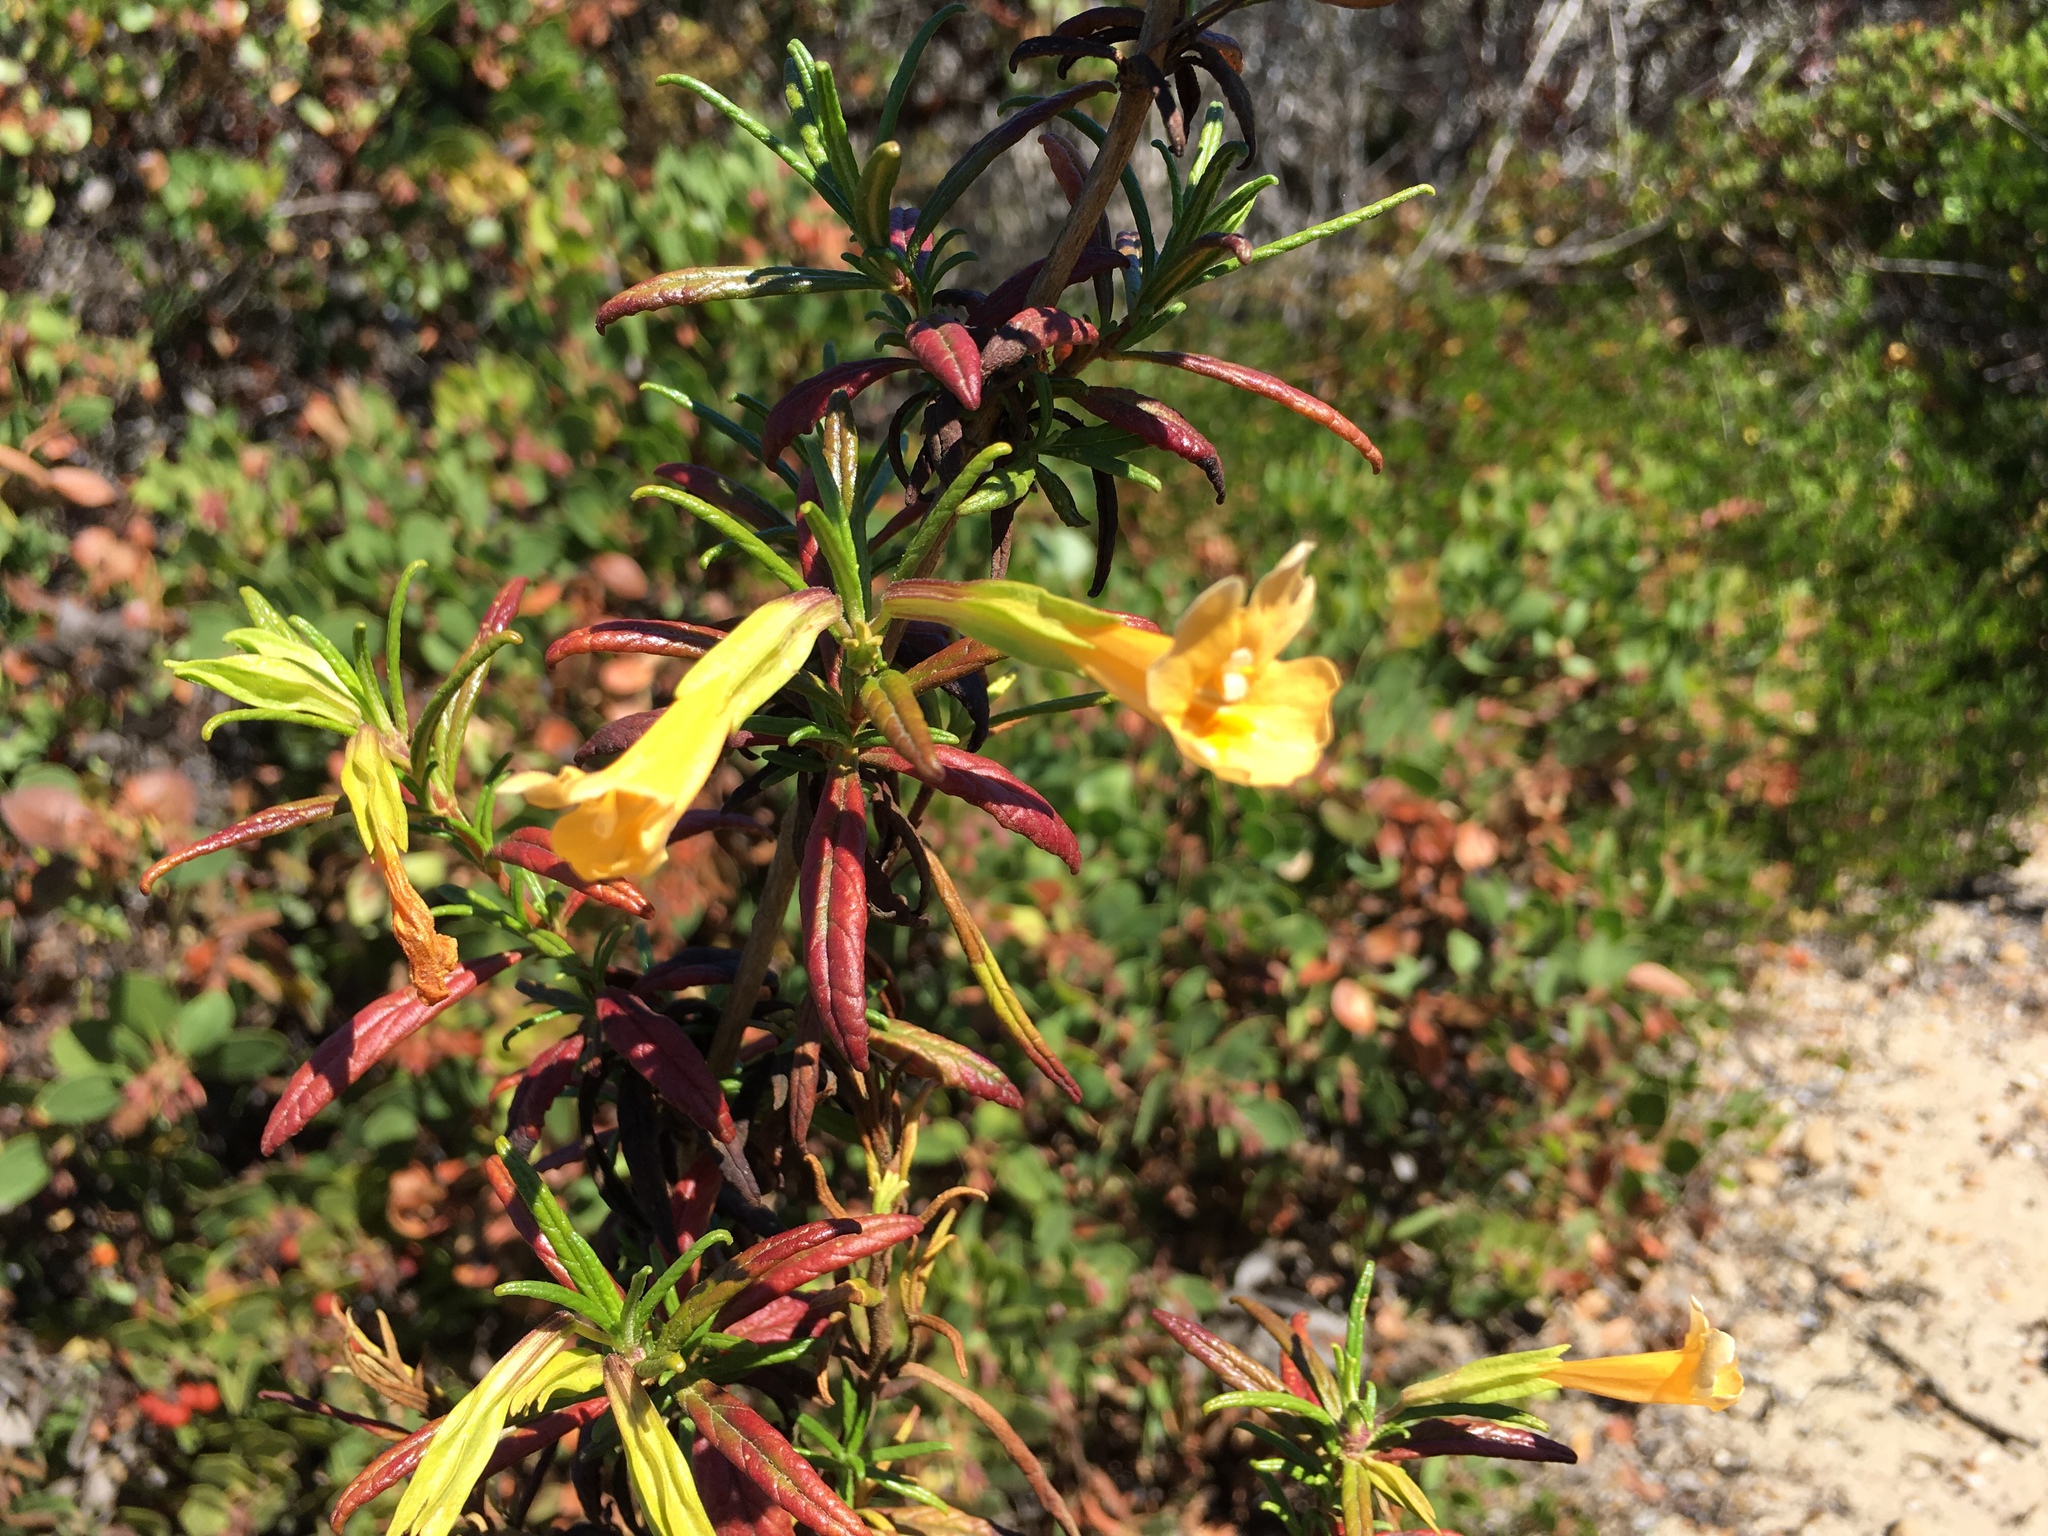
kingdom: Plantae
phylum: Tracheophyta
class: Magnoliopsida
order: Lamiales
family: Phrymaceae
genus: Diplacus
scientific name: Diplacus aurantiacus
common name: Bush monkey-flower
